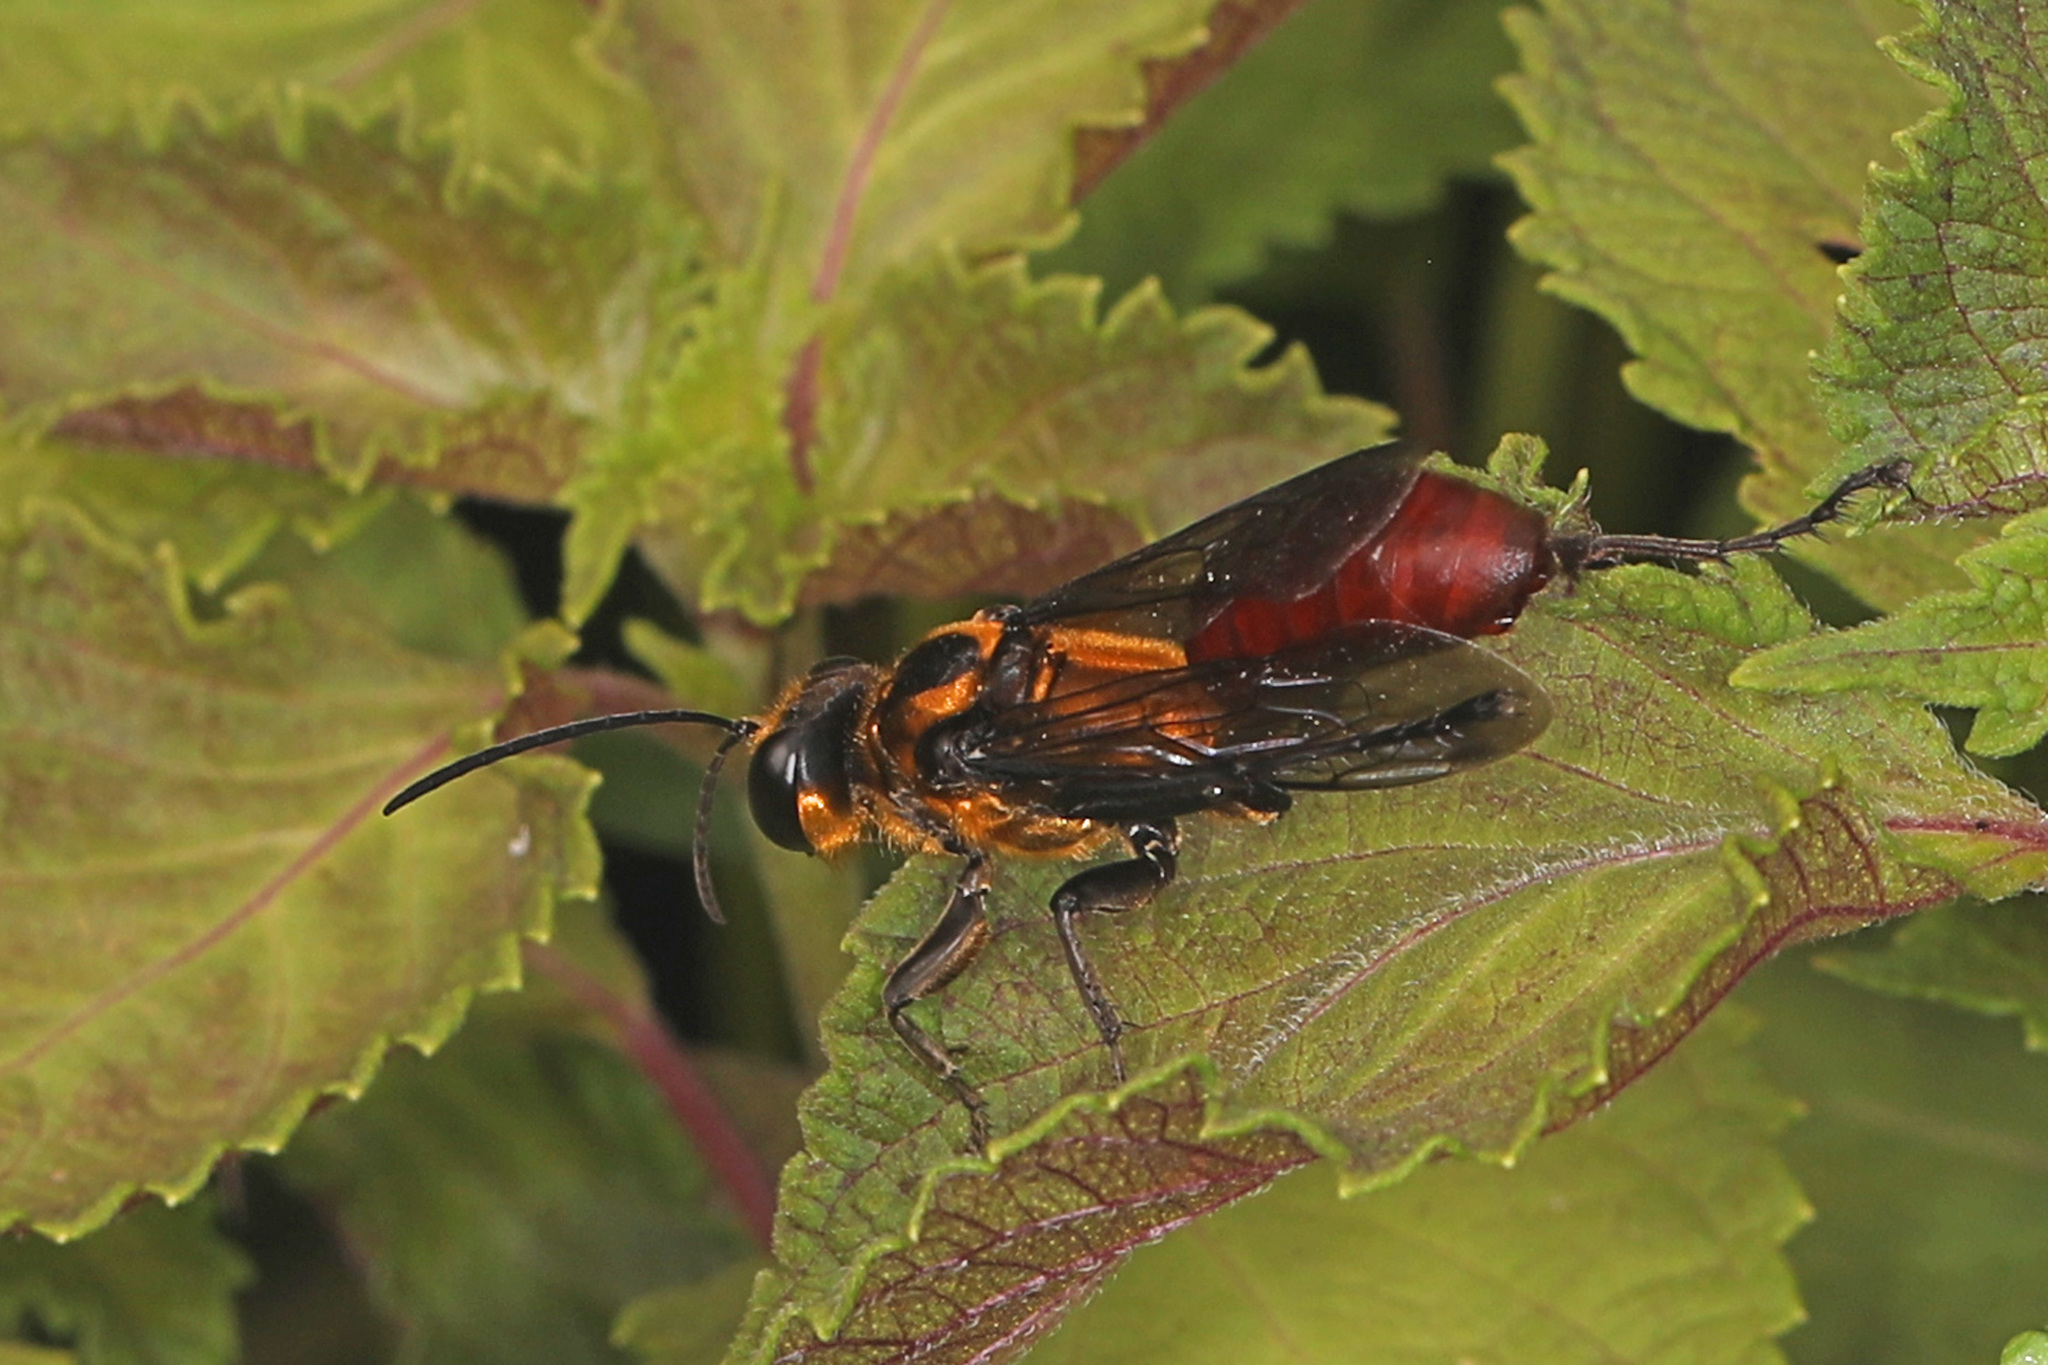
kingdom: Animalia
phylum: Arthropoda
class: Insecta
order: Hymenoptera
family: Sphecidae
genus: Sphex
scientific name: Sphex habenus
